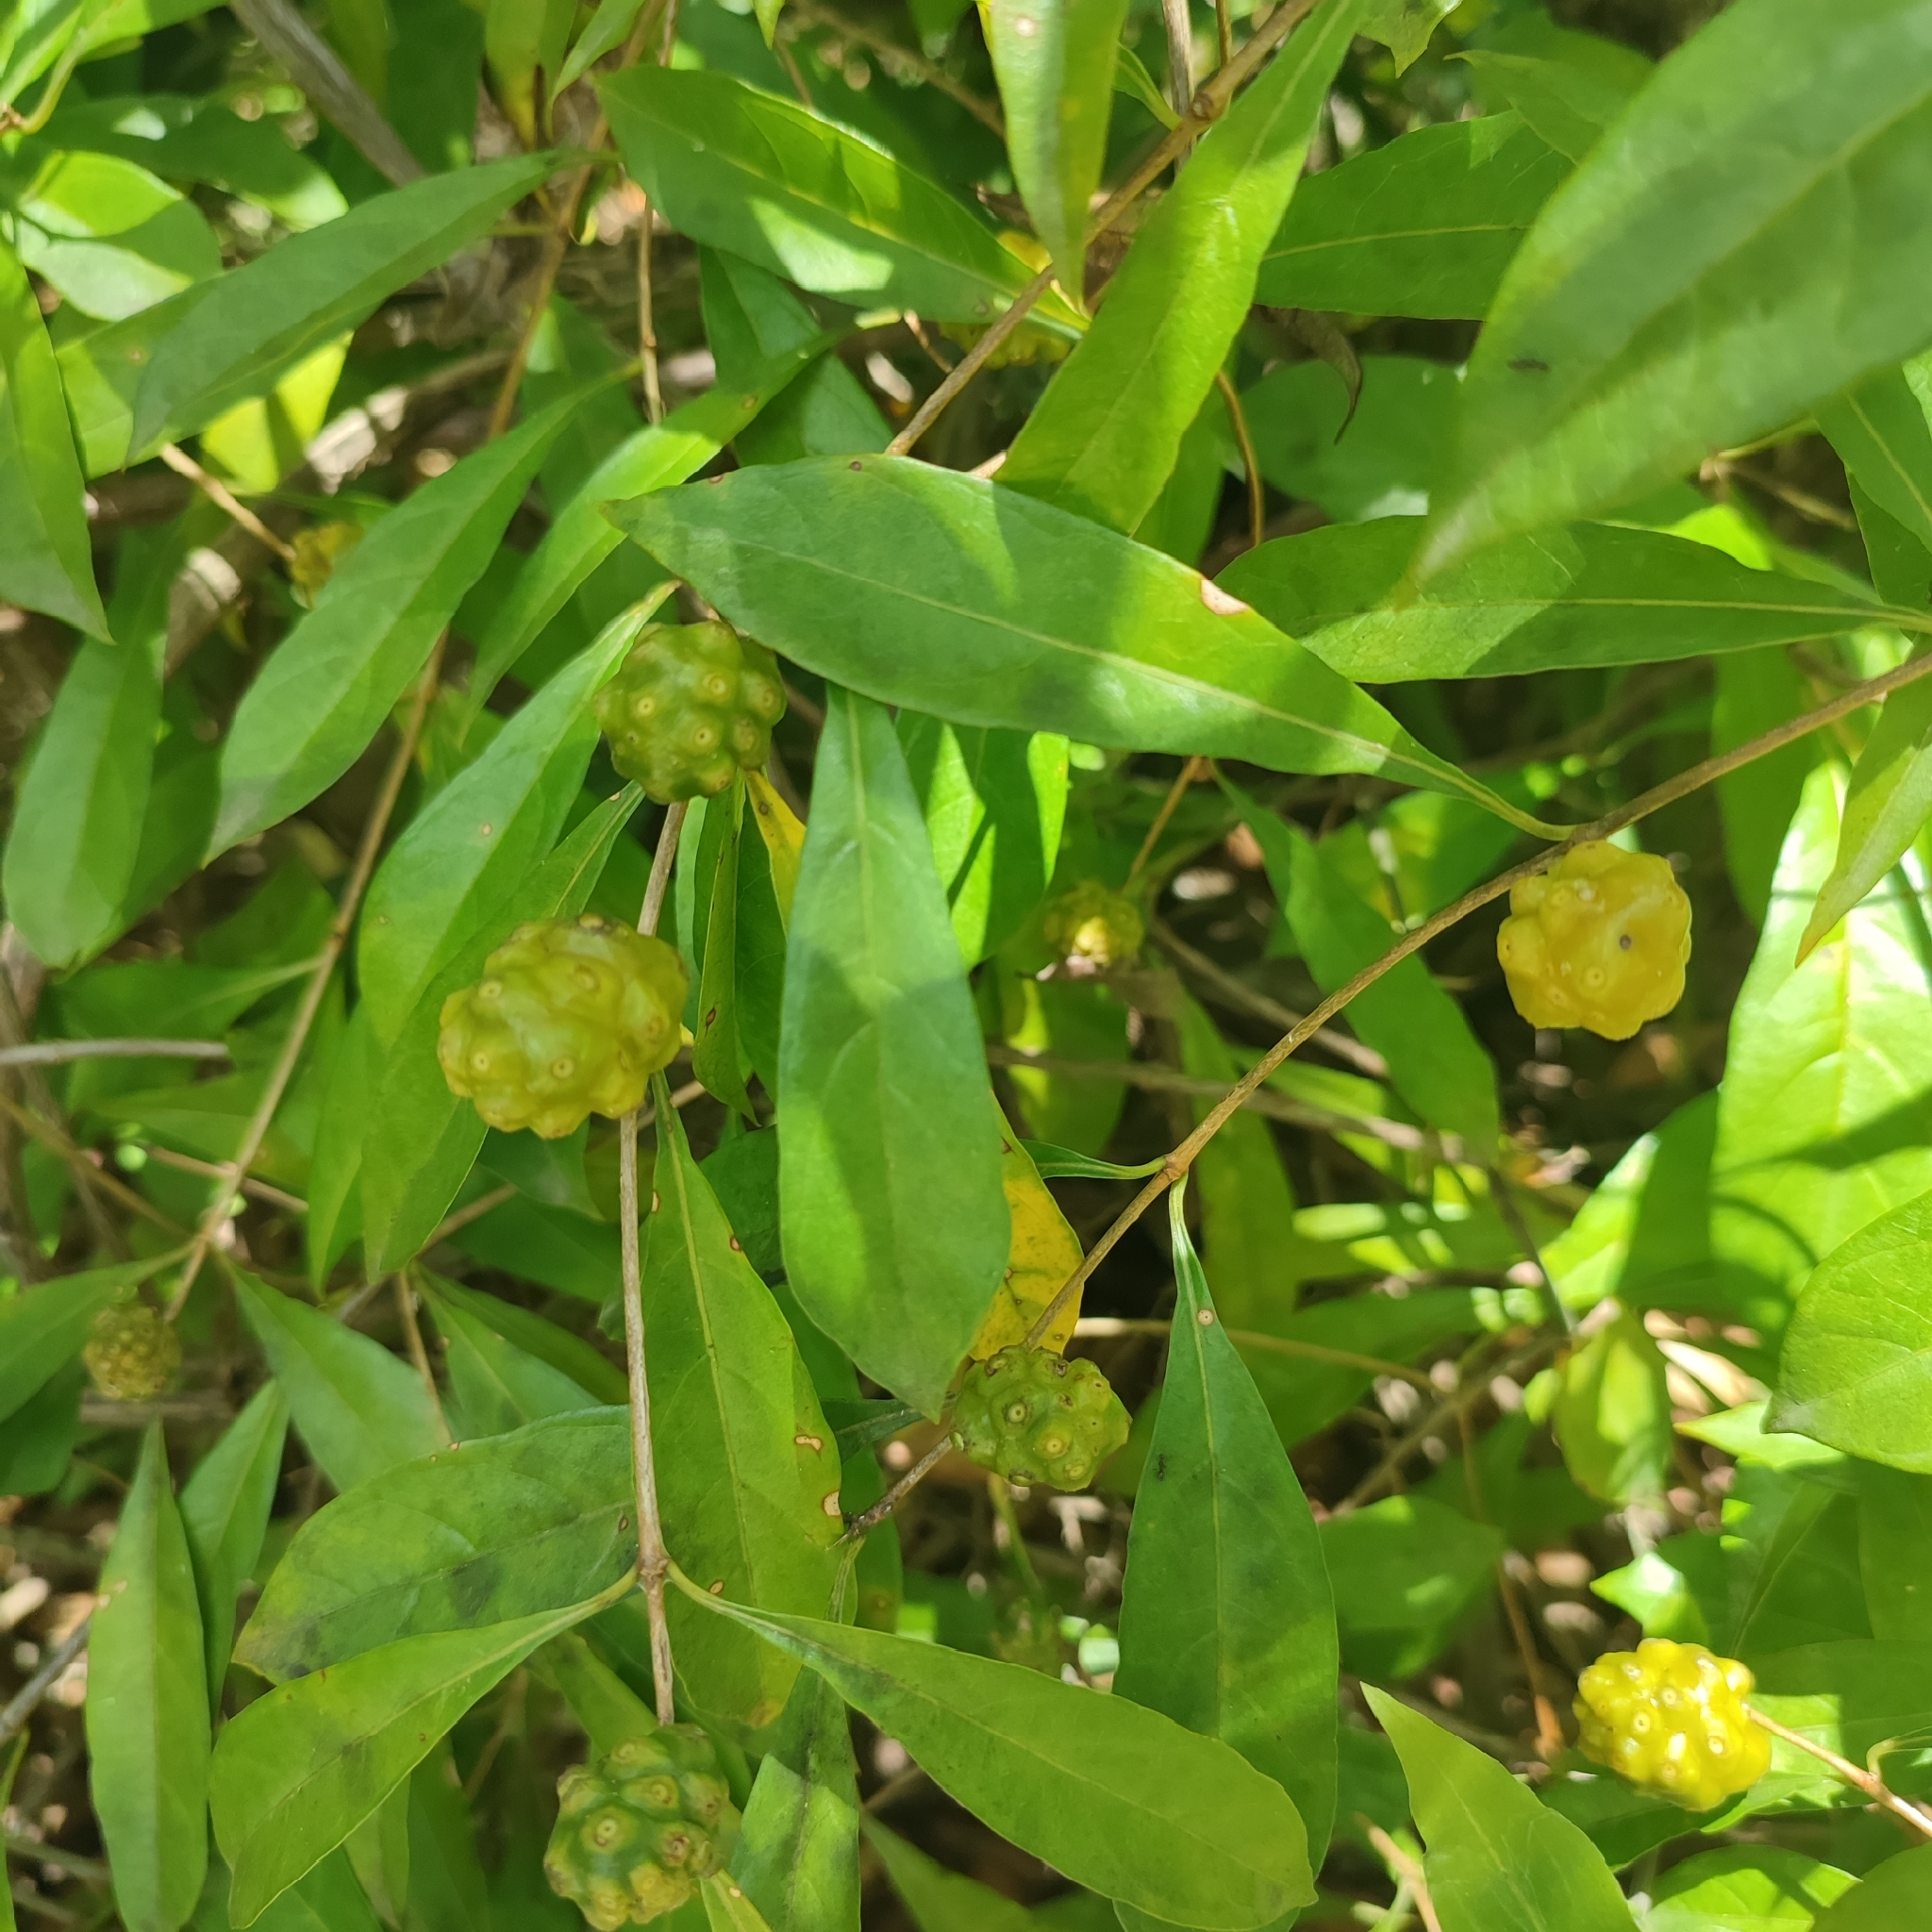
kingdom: Plantae
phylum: Tracheophyta
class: Magnoliopsida
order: Gentianales
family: Rubiaceae
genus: Morinda
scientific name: Morinda royoc
